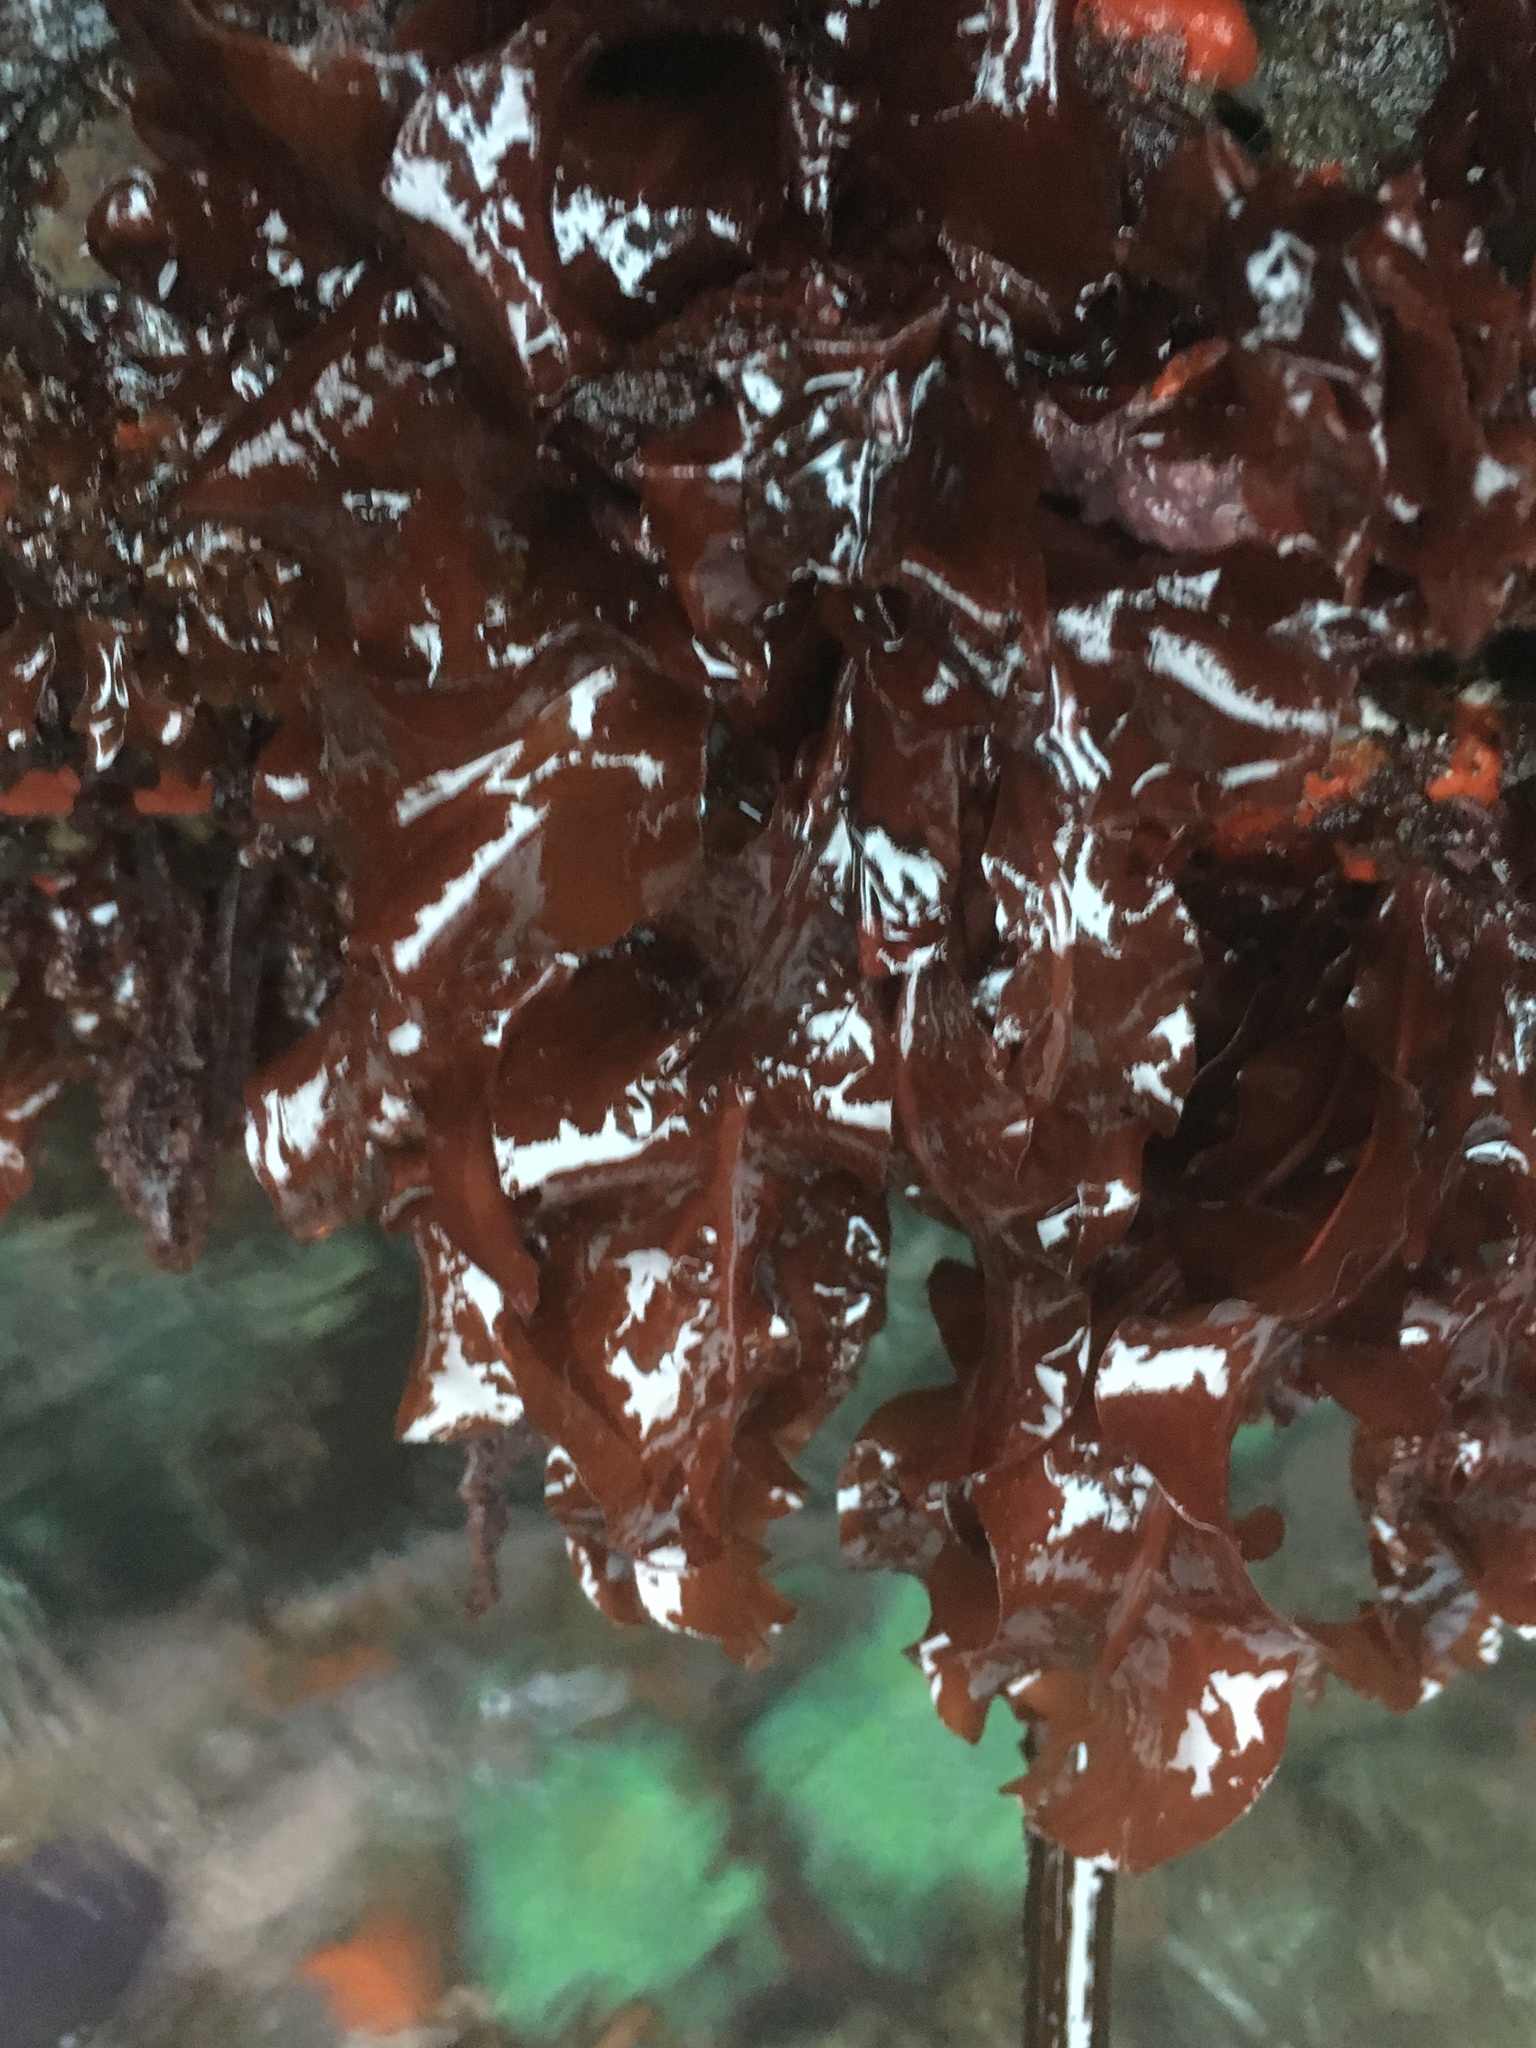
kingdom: Plantae
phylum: Rhodophyta
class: Florideophyceae
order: Gigartinales
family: Kallymeniaceae
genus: Erythrophyllum
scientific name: Erythrophyllum delesserioides
